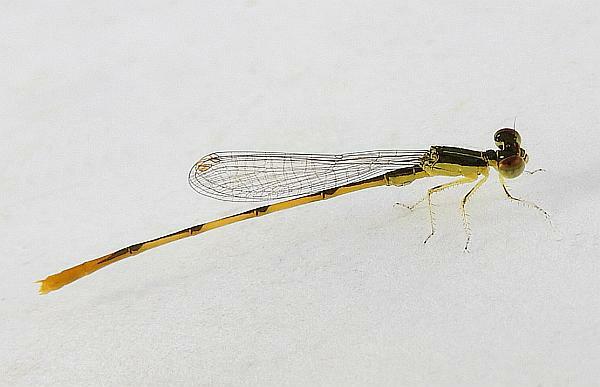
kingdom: Animalia
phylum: Arthropoda
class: Insecta
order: Odonata
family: Coenagrionidae
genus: Ischnura
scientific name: Ischnura hastata
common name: Citrine forktail
